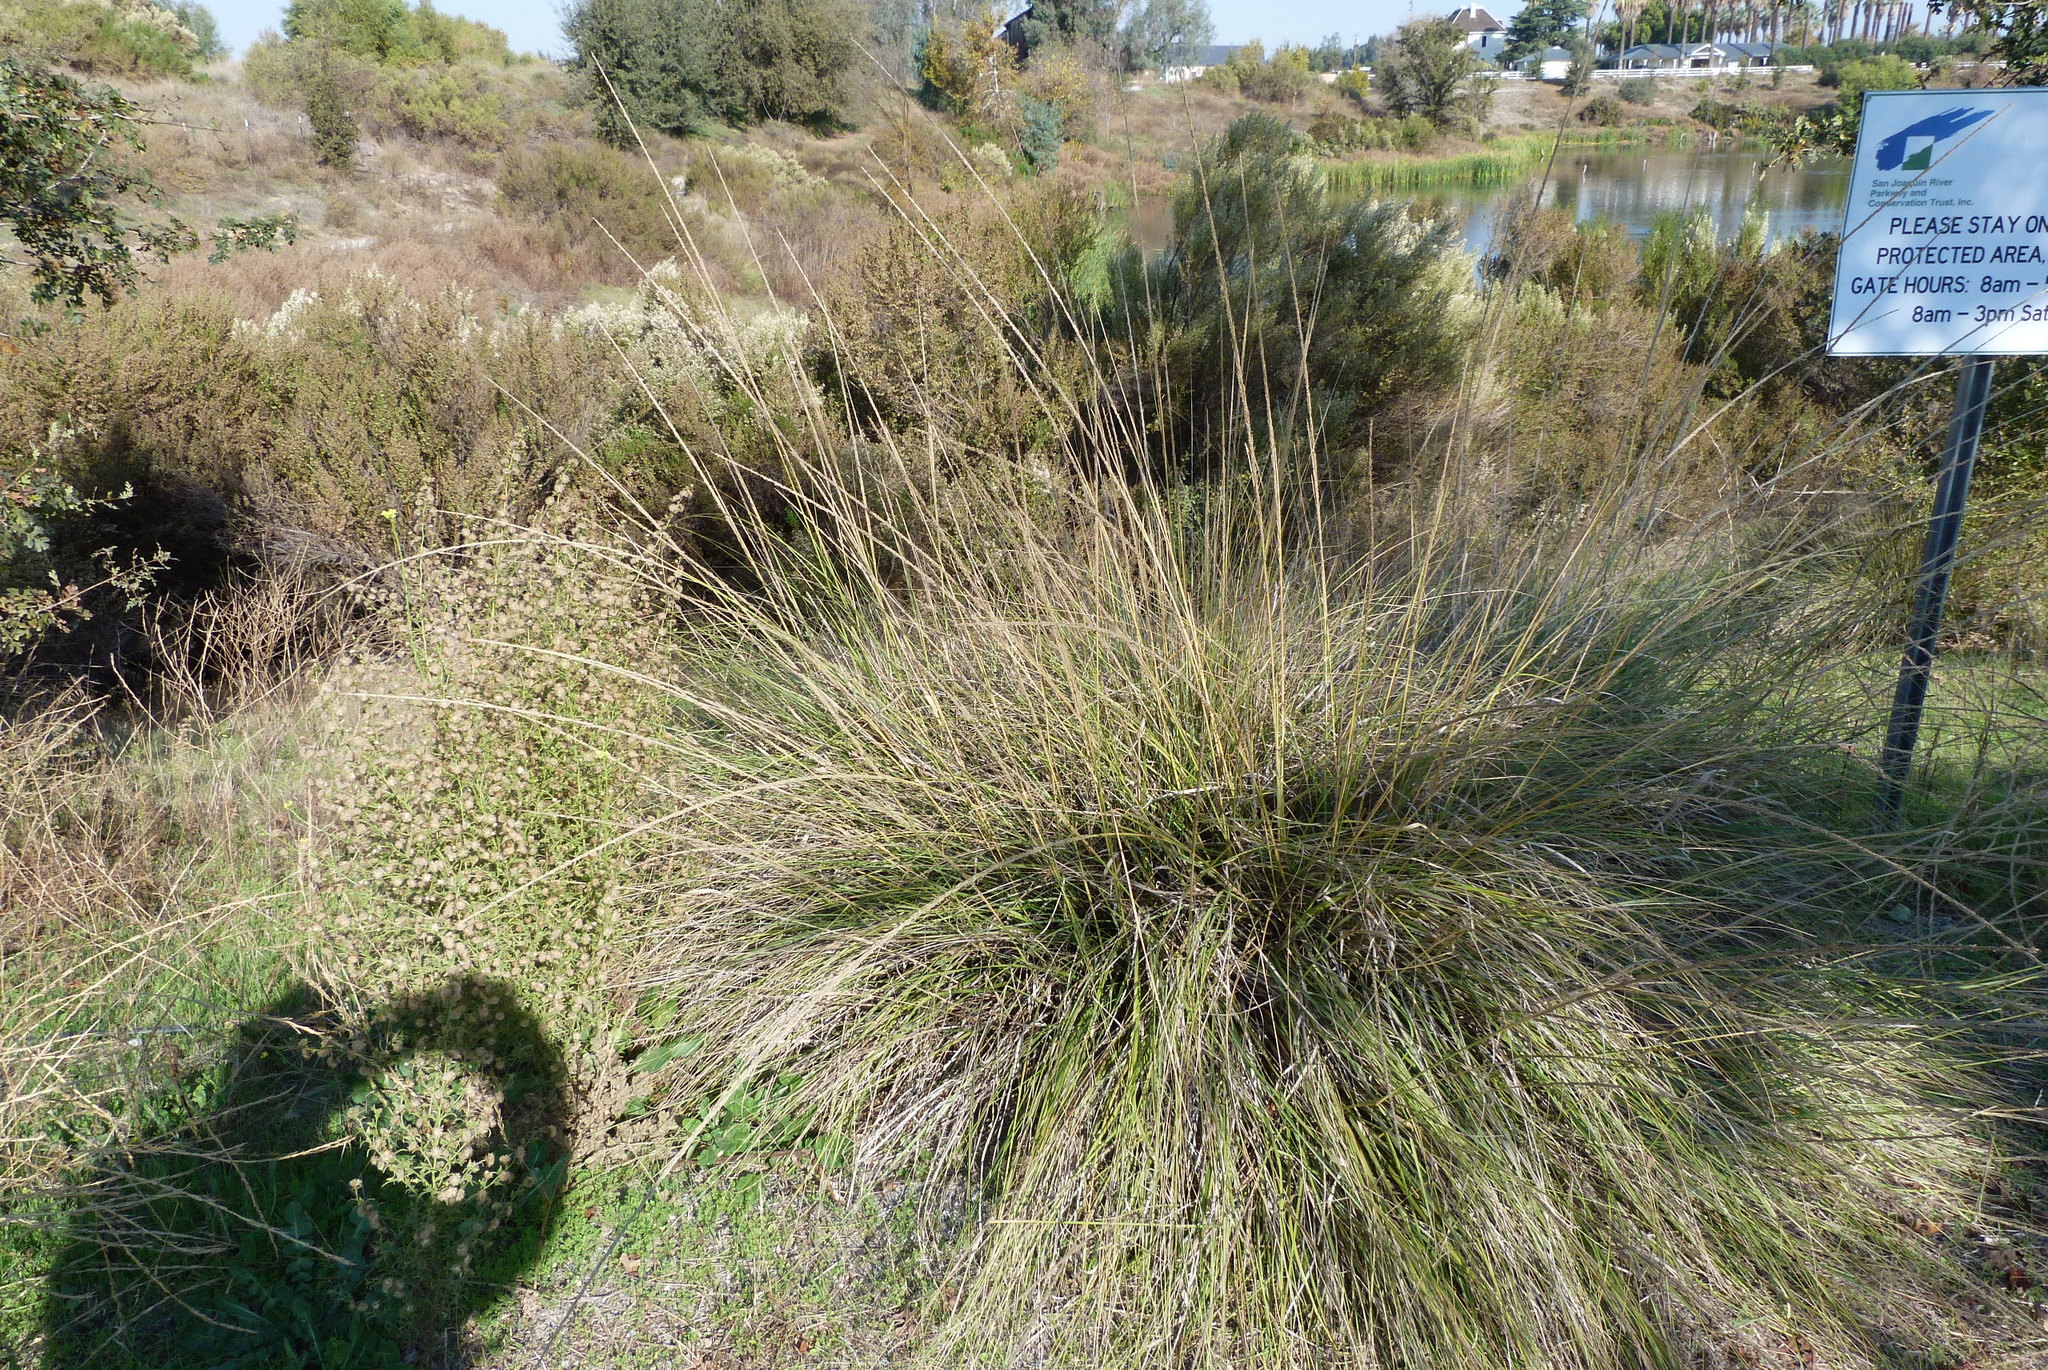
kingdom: Plantae
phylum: Tracheophyta
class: Liliopsida
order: Poales
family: Poaceae
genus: Muhlenbergia
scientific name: Muhlenbergia rigens
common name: Deer grass
